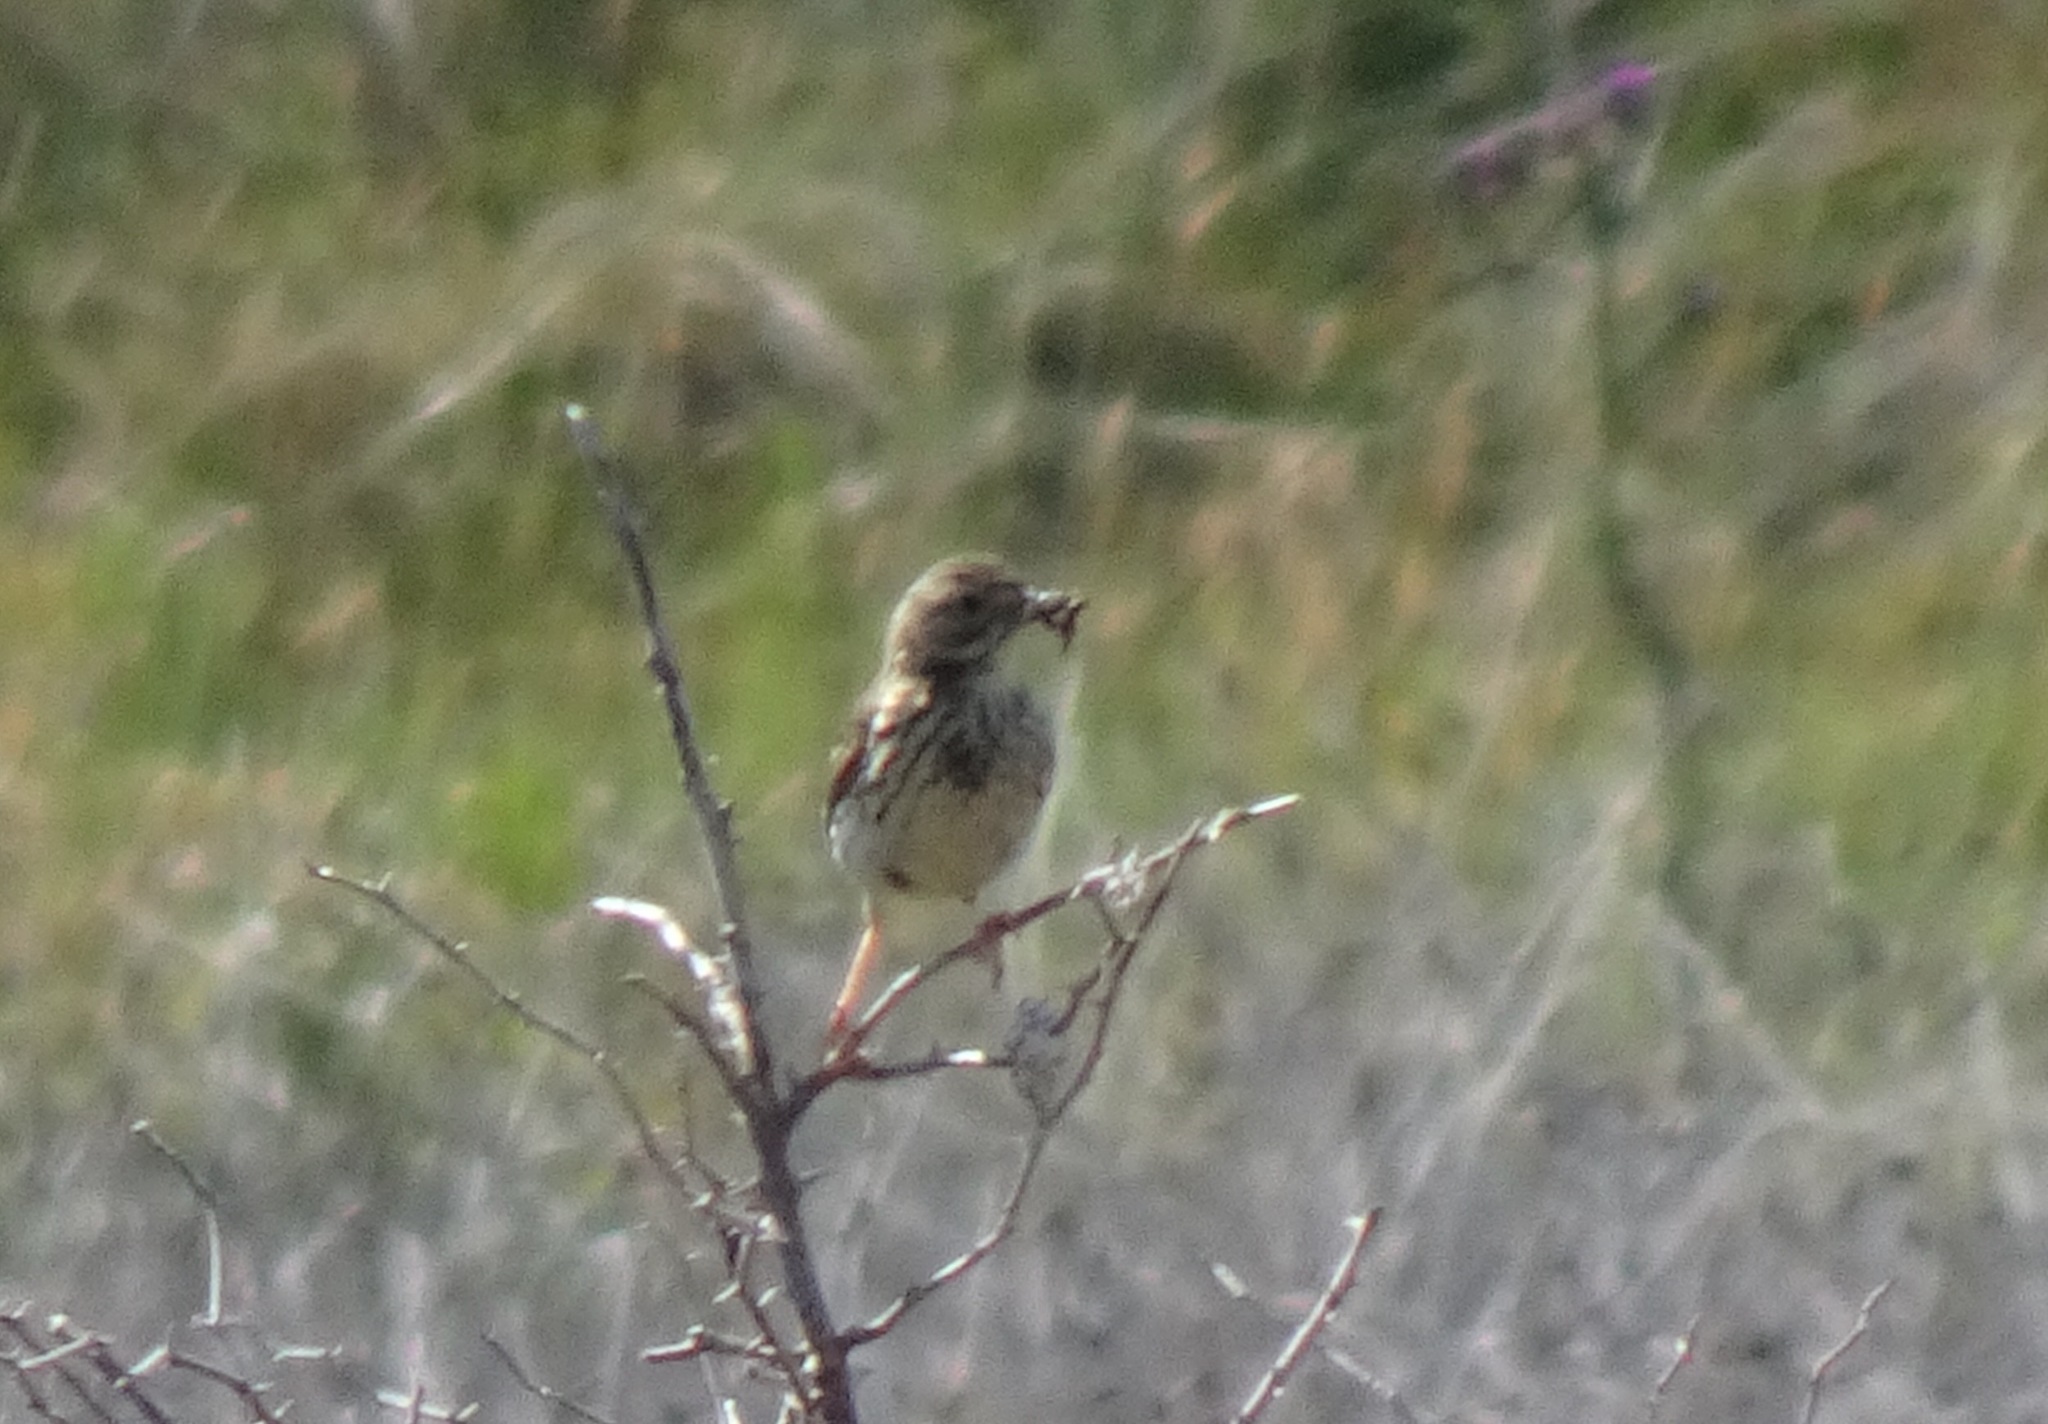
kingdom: Animalia
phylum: Chordata
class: Aves
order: Passeriformes
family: Motacillidae
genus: Anthus
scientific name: Anthus pratensis
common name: Meadow pipit
